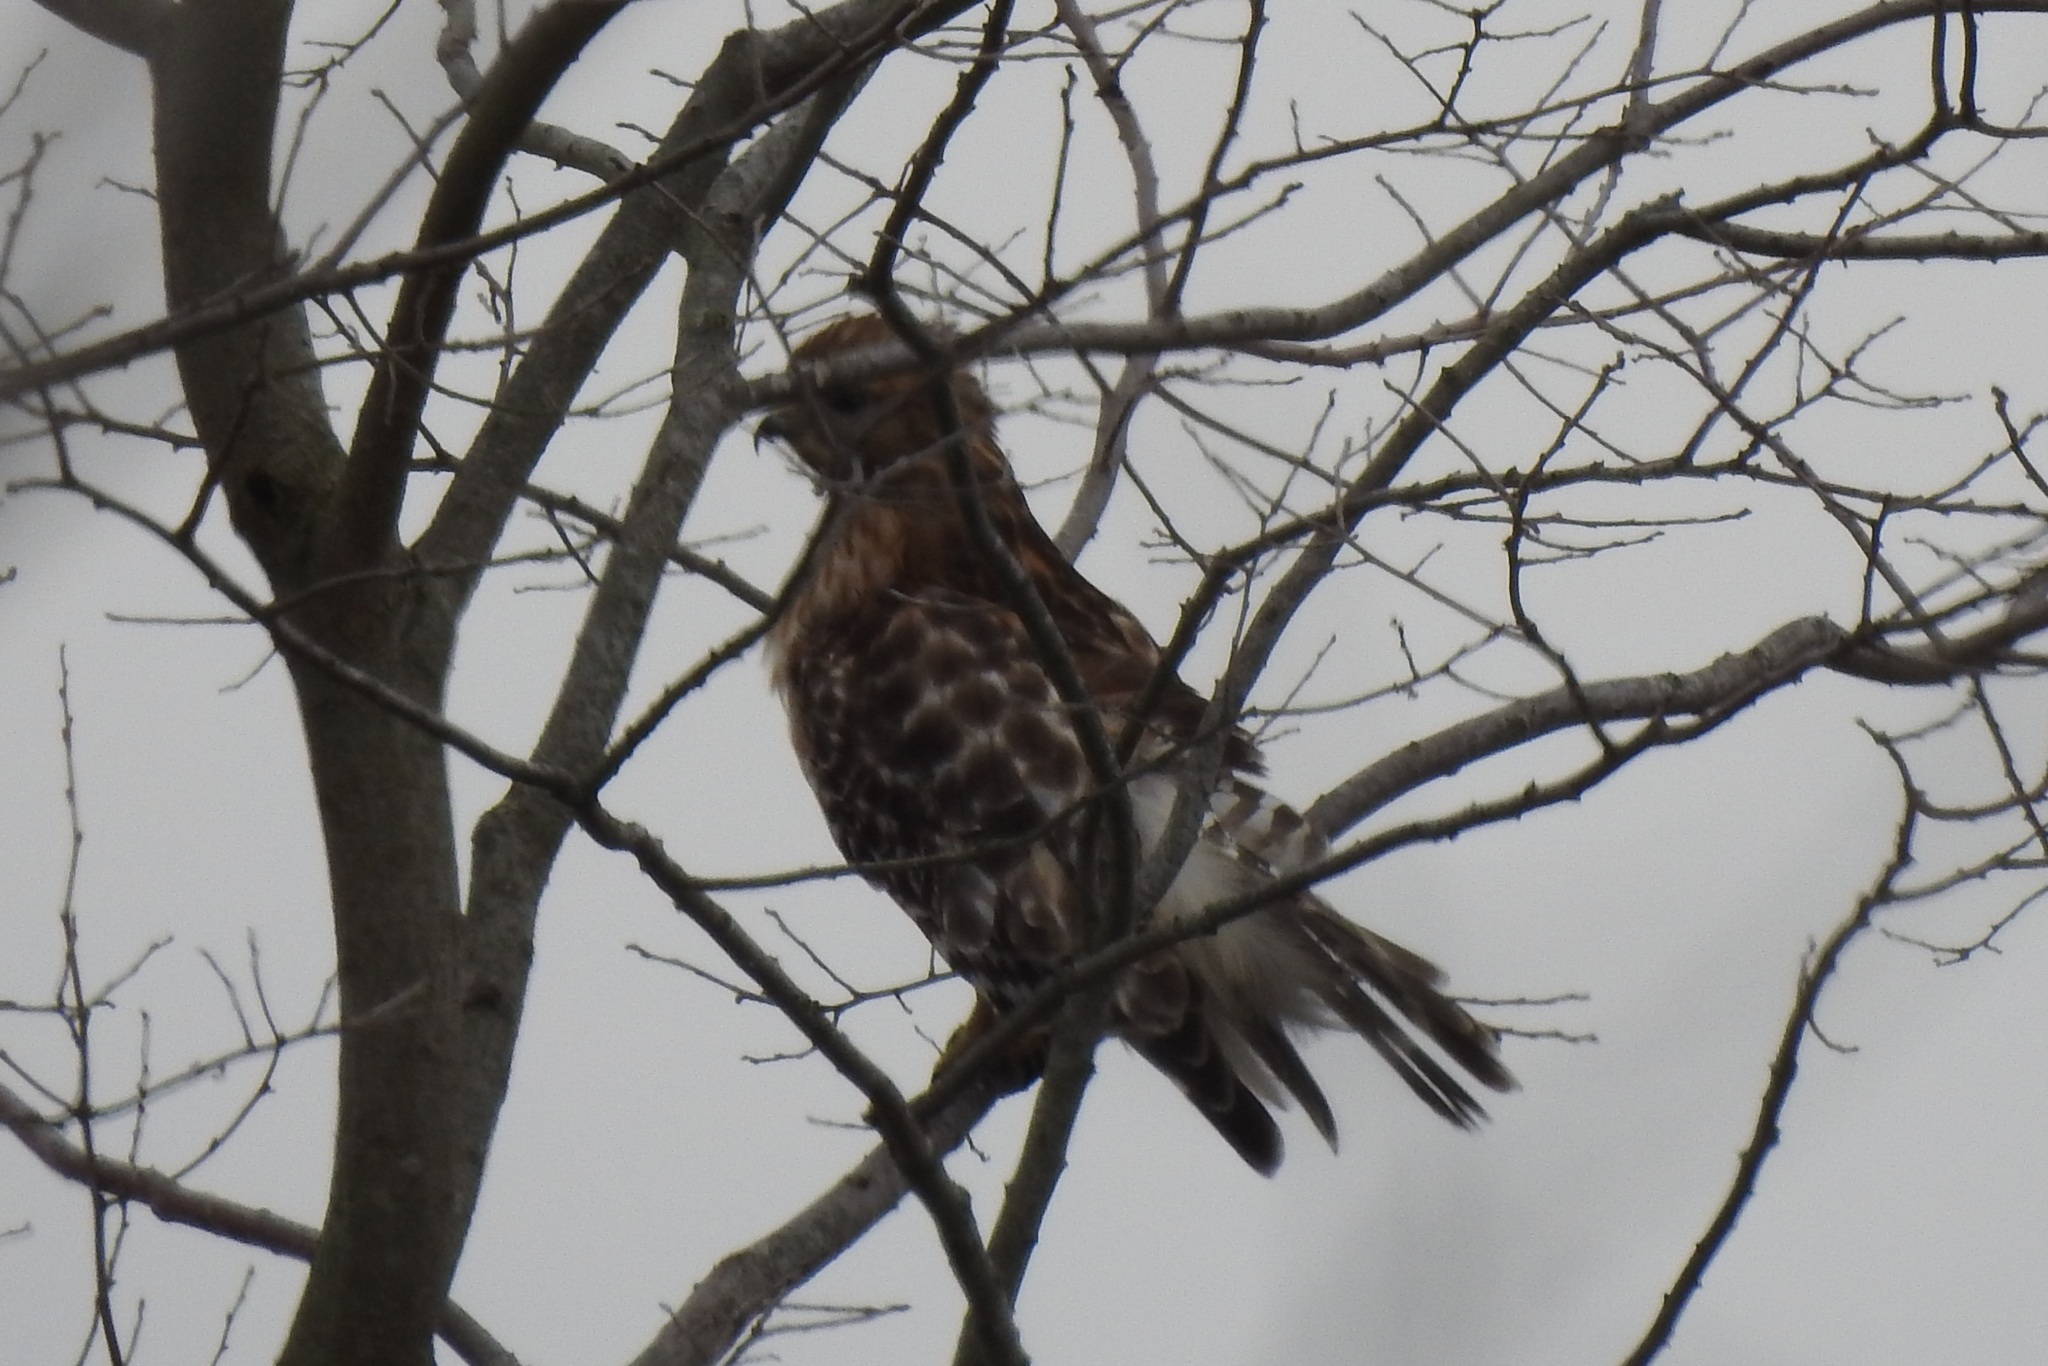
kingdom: Animalia
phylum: Chordata
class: Aves
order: Accipitriformes
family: Accipitridae
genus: Buteo
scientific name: Buteo lineatus
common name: Red-shouldered hawk
